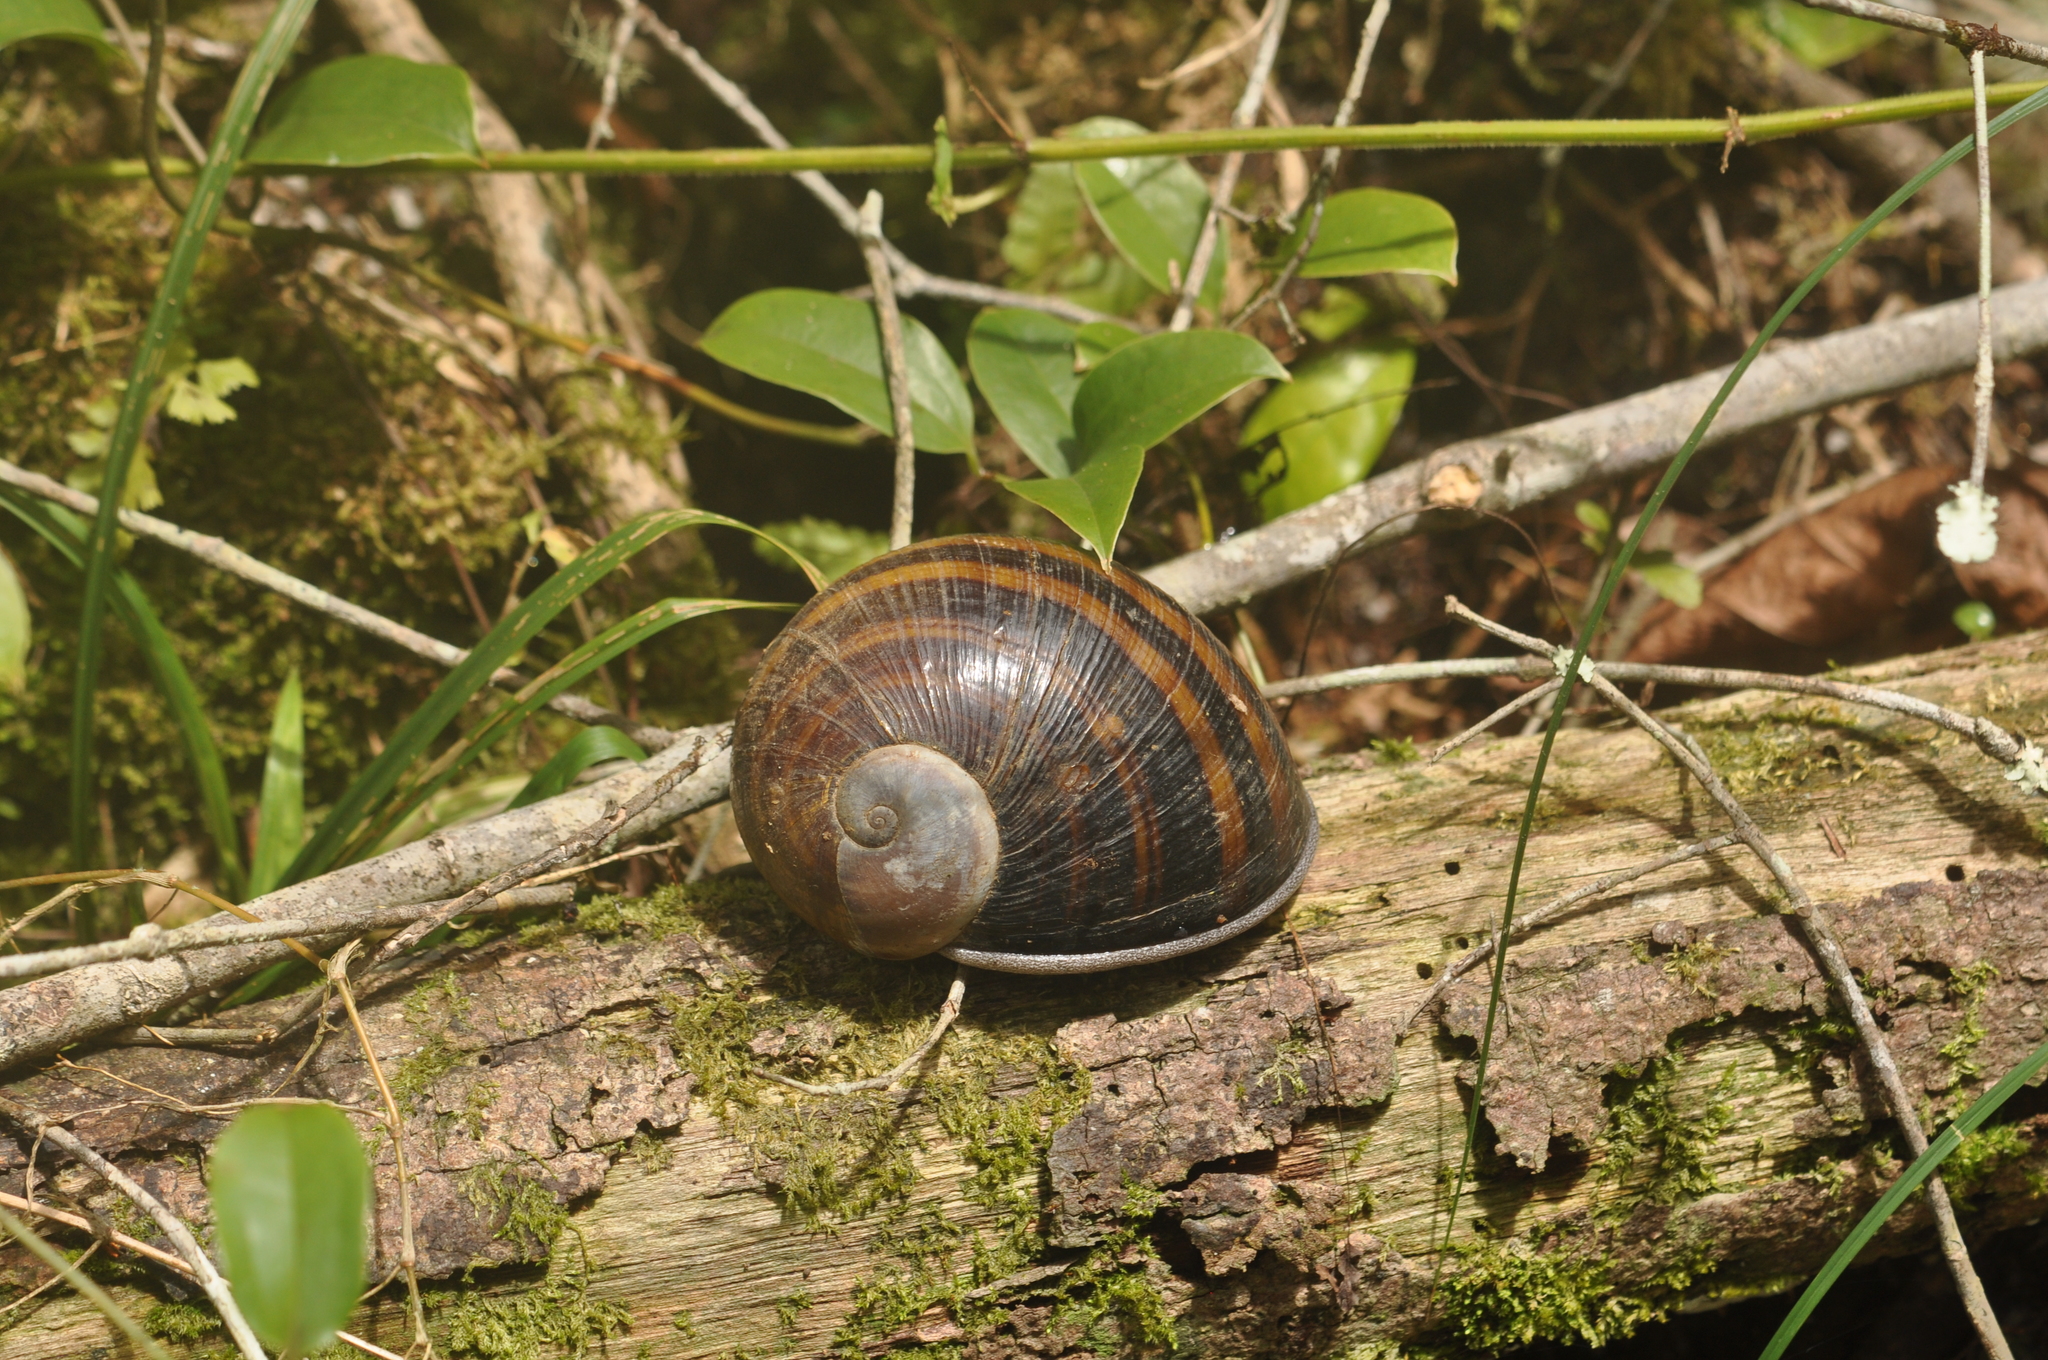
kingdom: Animalia
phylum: Mollusca
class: Gastropoda
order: Stylommatophora
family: Acavidae
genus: Helicophanta
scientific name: Helicophanta magnifica
